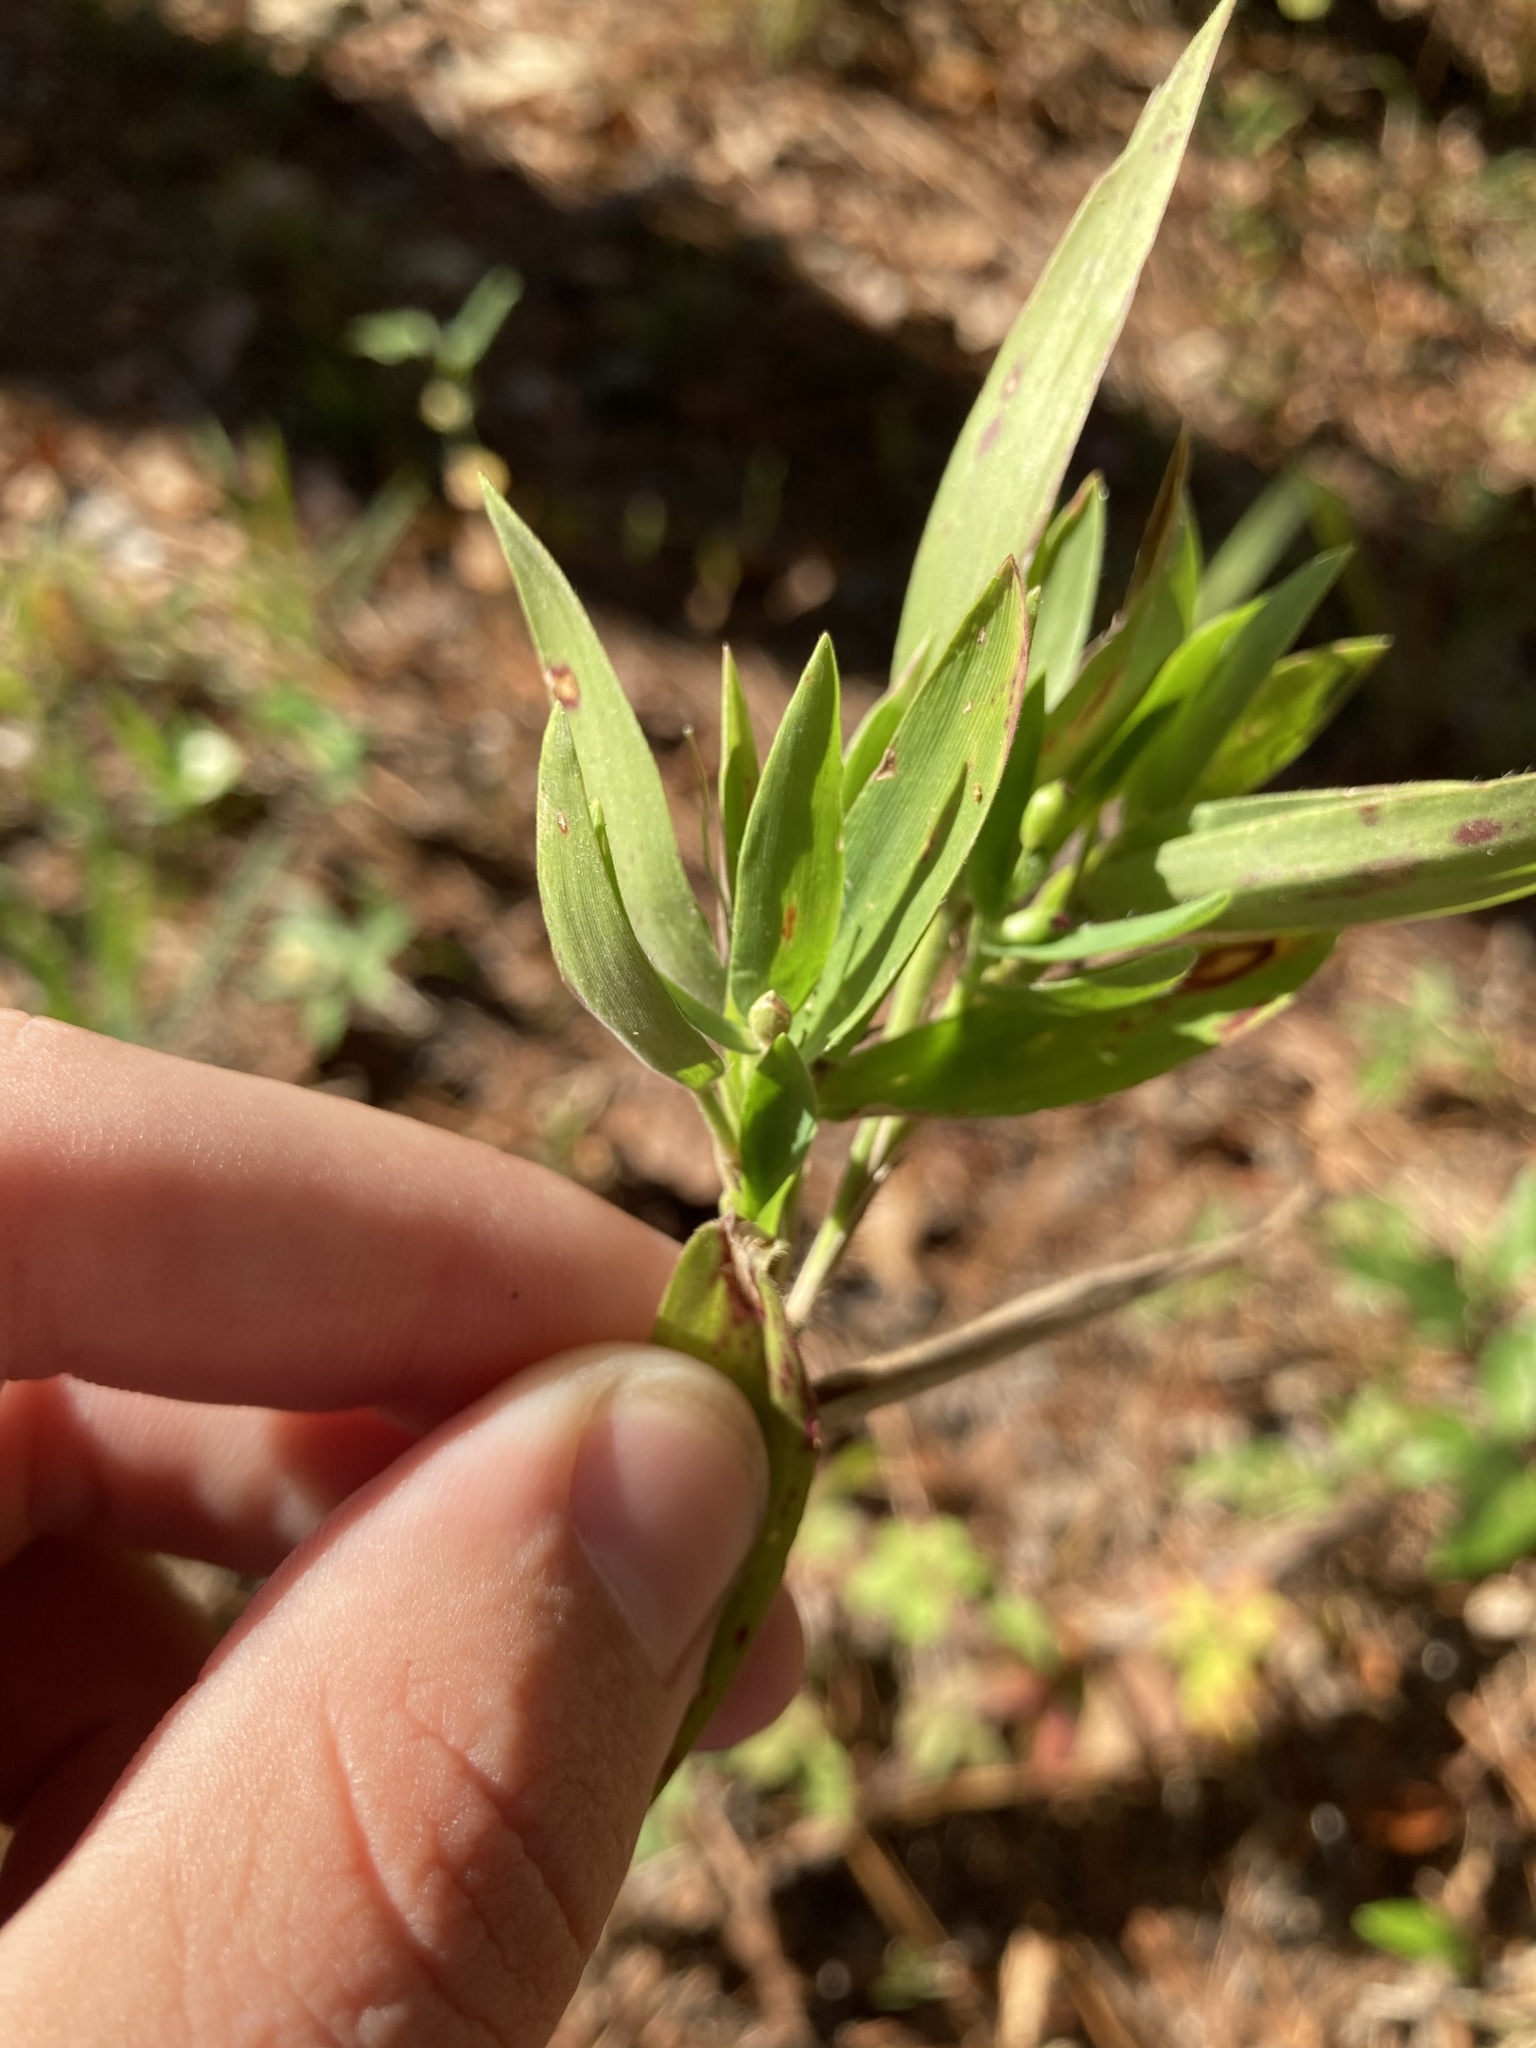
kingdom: Plantae
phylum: Tracheophyta
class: Liliopsida
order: Poales
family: Poaceae
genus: Dichanthelium
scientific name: Dichanthelium ravenelii
